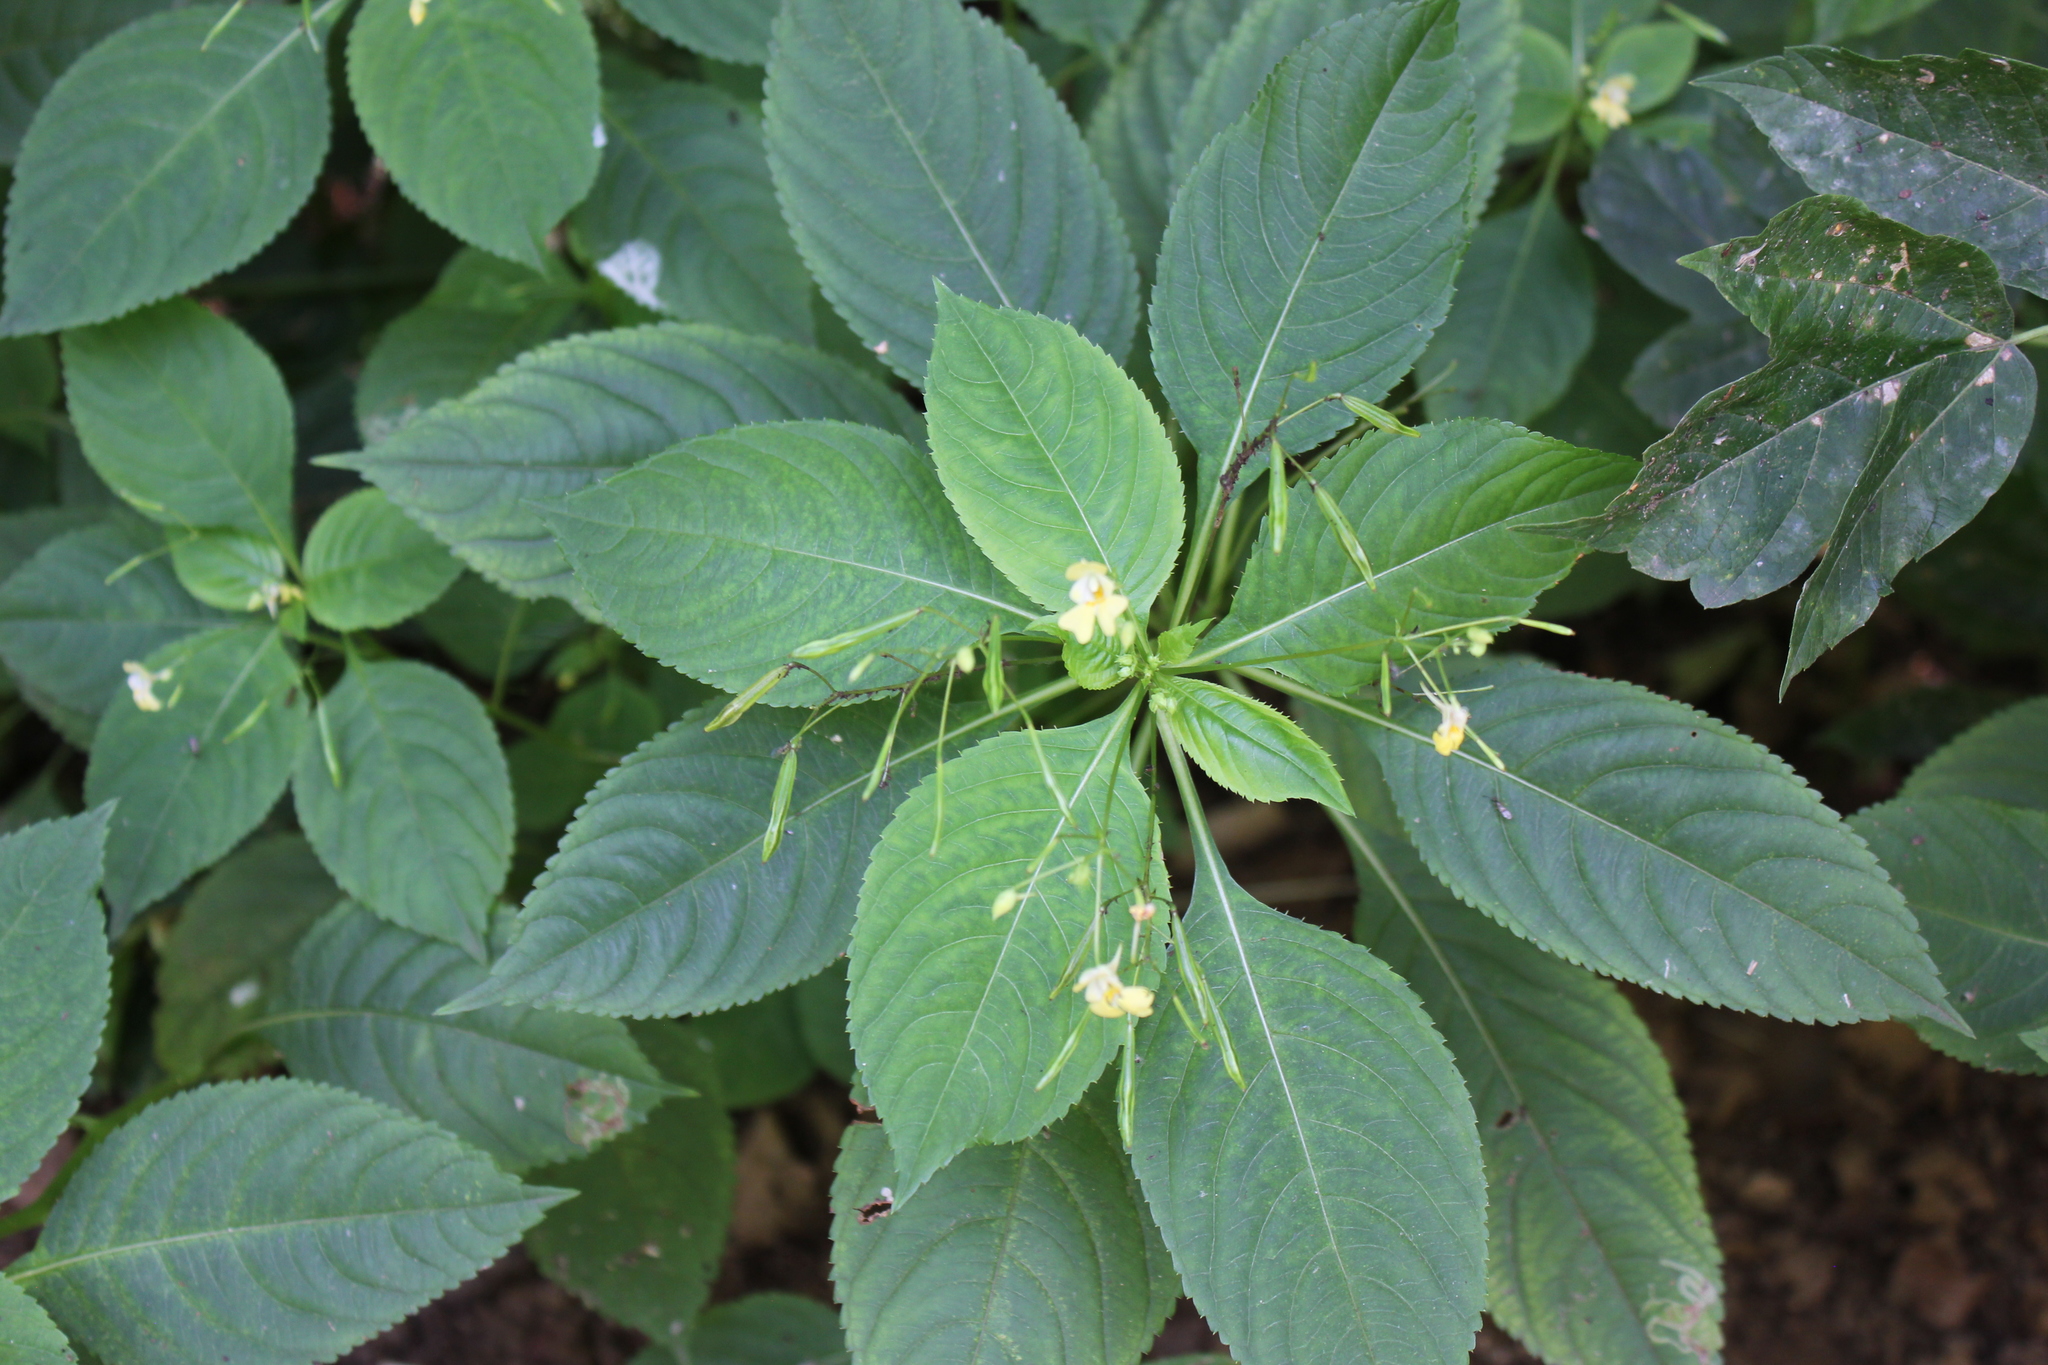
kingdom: Plantae
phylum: Tracheophyta
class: Magnoliopsida
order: Ericales
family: Balsaminaceae
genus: Impatiens
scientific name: Impatiens parviflora
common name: Small balsam
